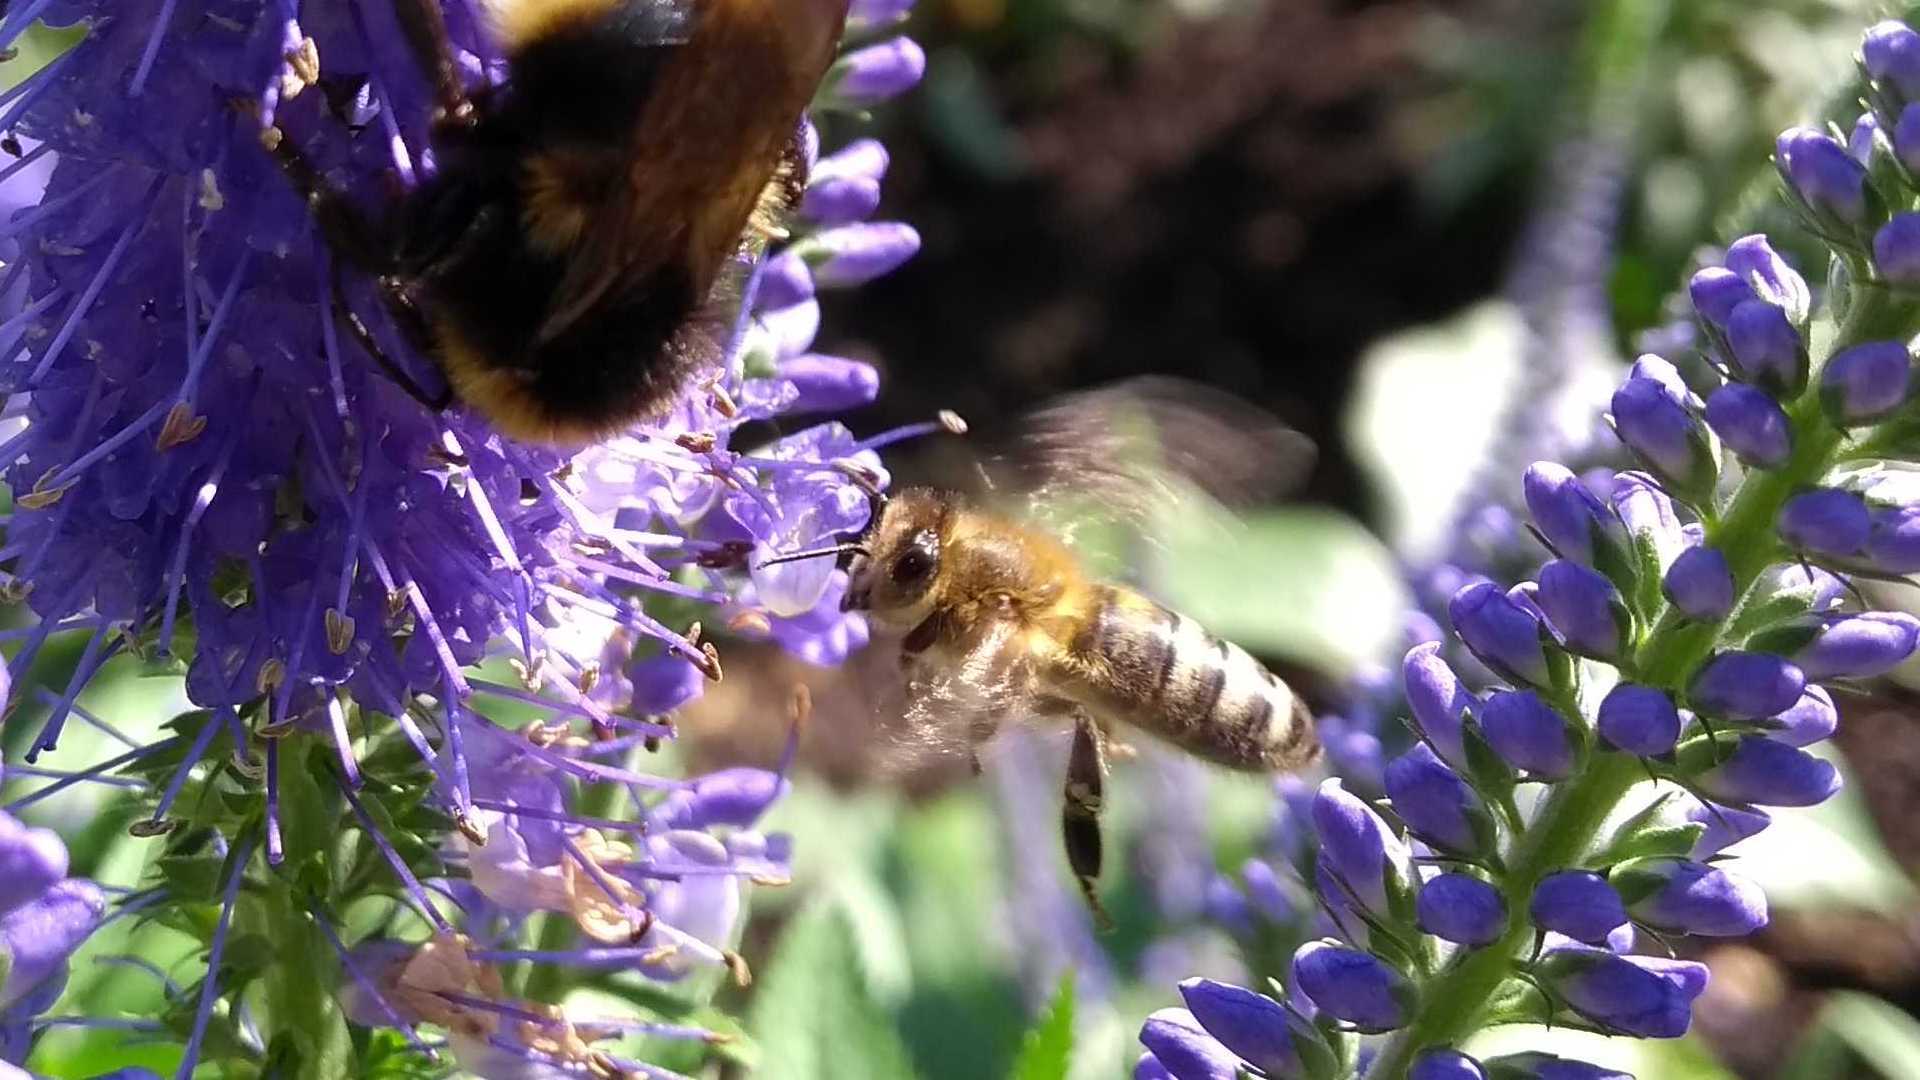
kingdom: Animalia
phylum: Arthropoda
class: Insecta
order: Hymenoptera
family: Apidae
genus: Apis
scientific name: Apis mellifera
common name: Honey bee
